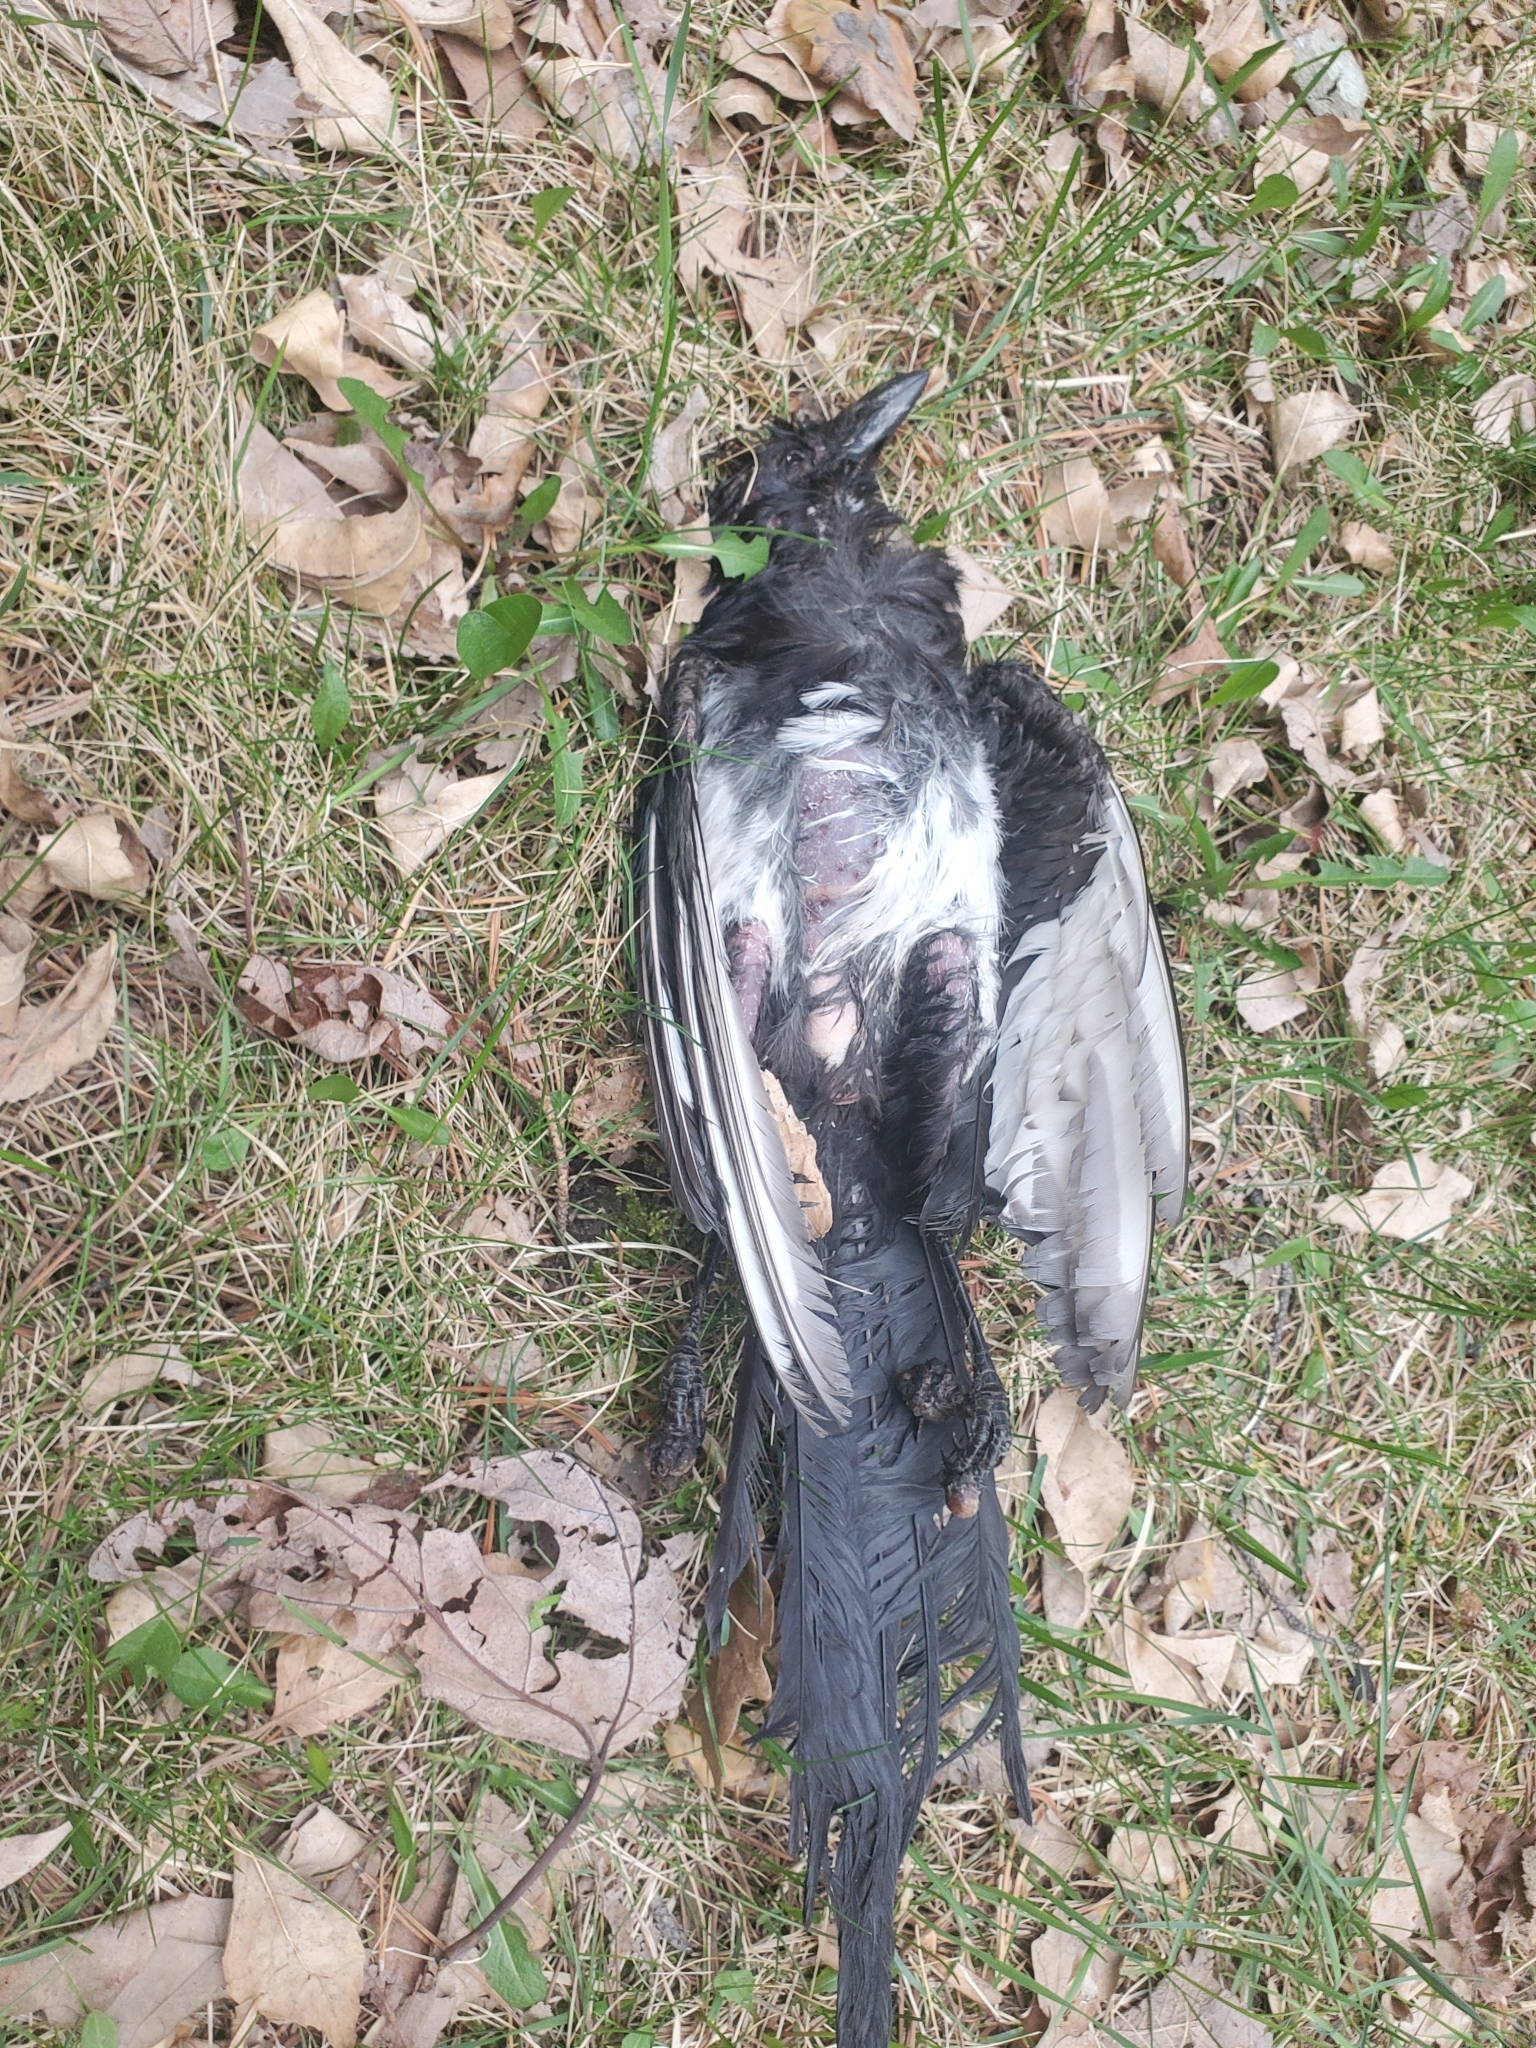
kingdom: Viruses
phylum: Nucleocytoviricota
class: Pokkesviricetes
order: Chitovirales
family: Poxviridae
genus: Avipoxvirus
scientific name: Avipoxvirus
